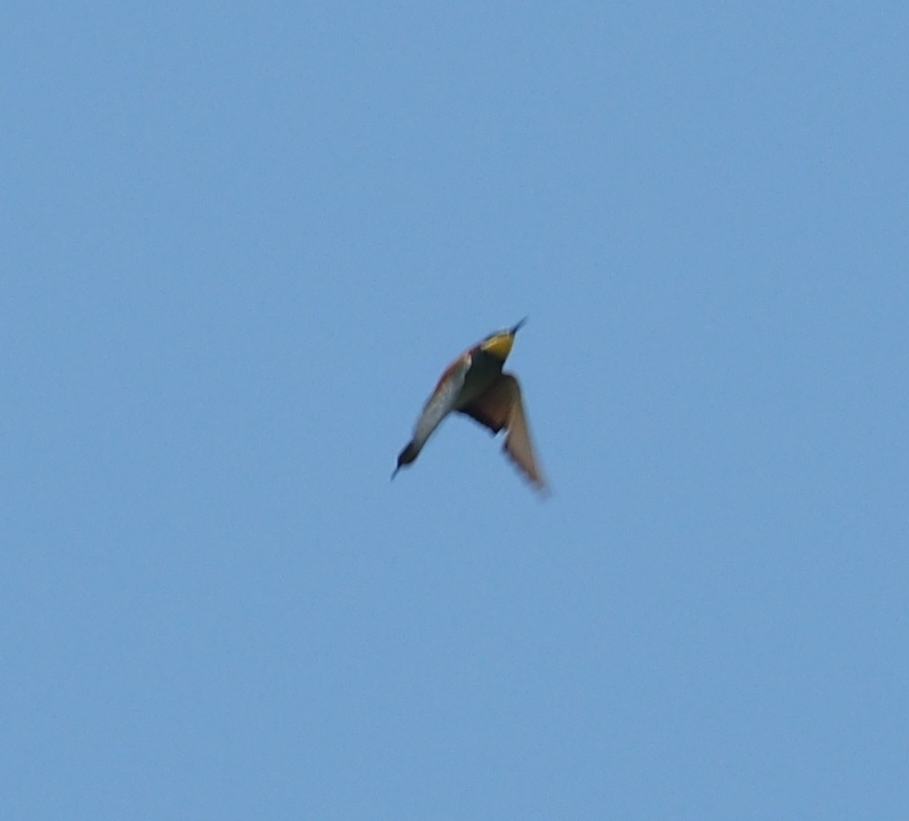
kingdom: Animalia
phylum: Chordata
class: Aves
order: Coraciiformes
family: Meropidae
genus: Merops
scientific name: Merops apiaster
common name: European bee-eater
